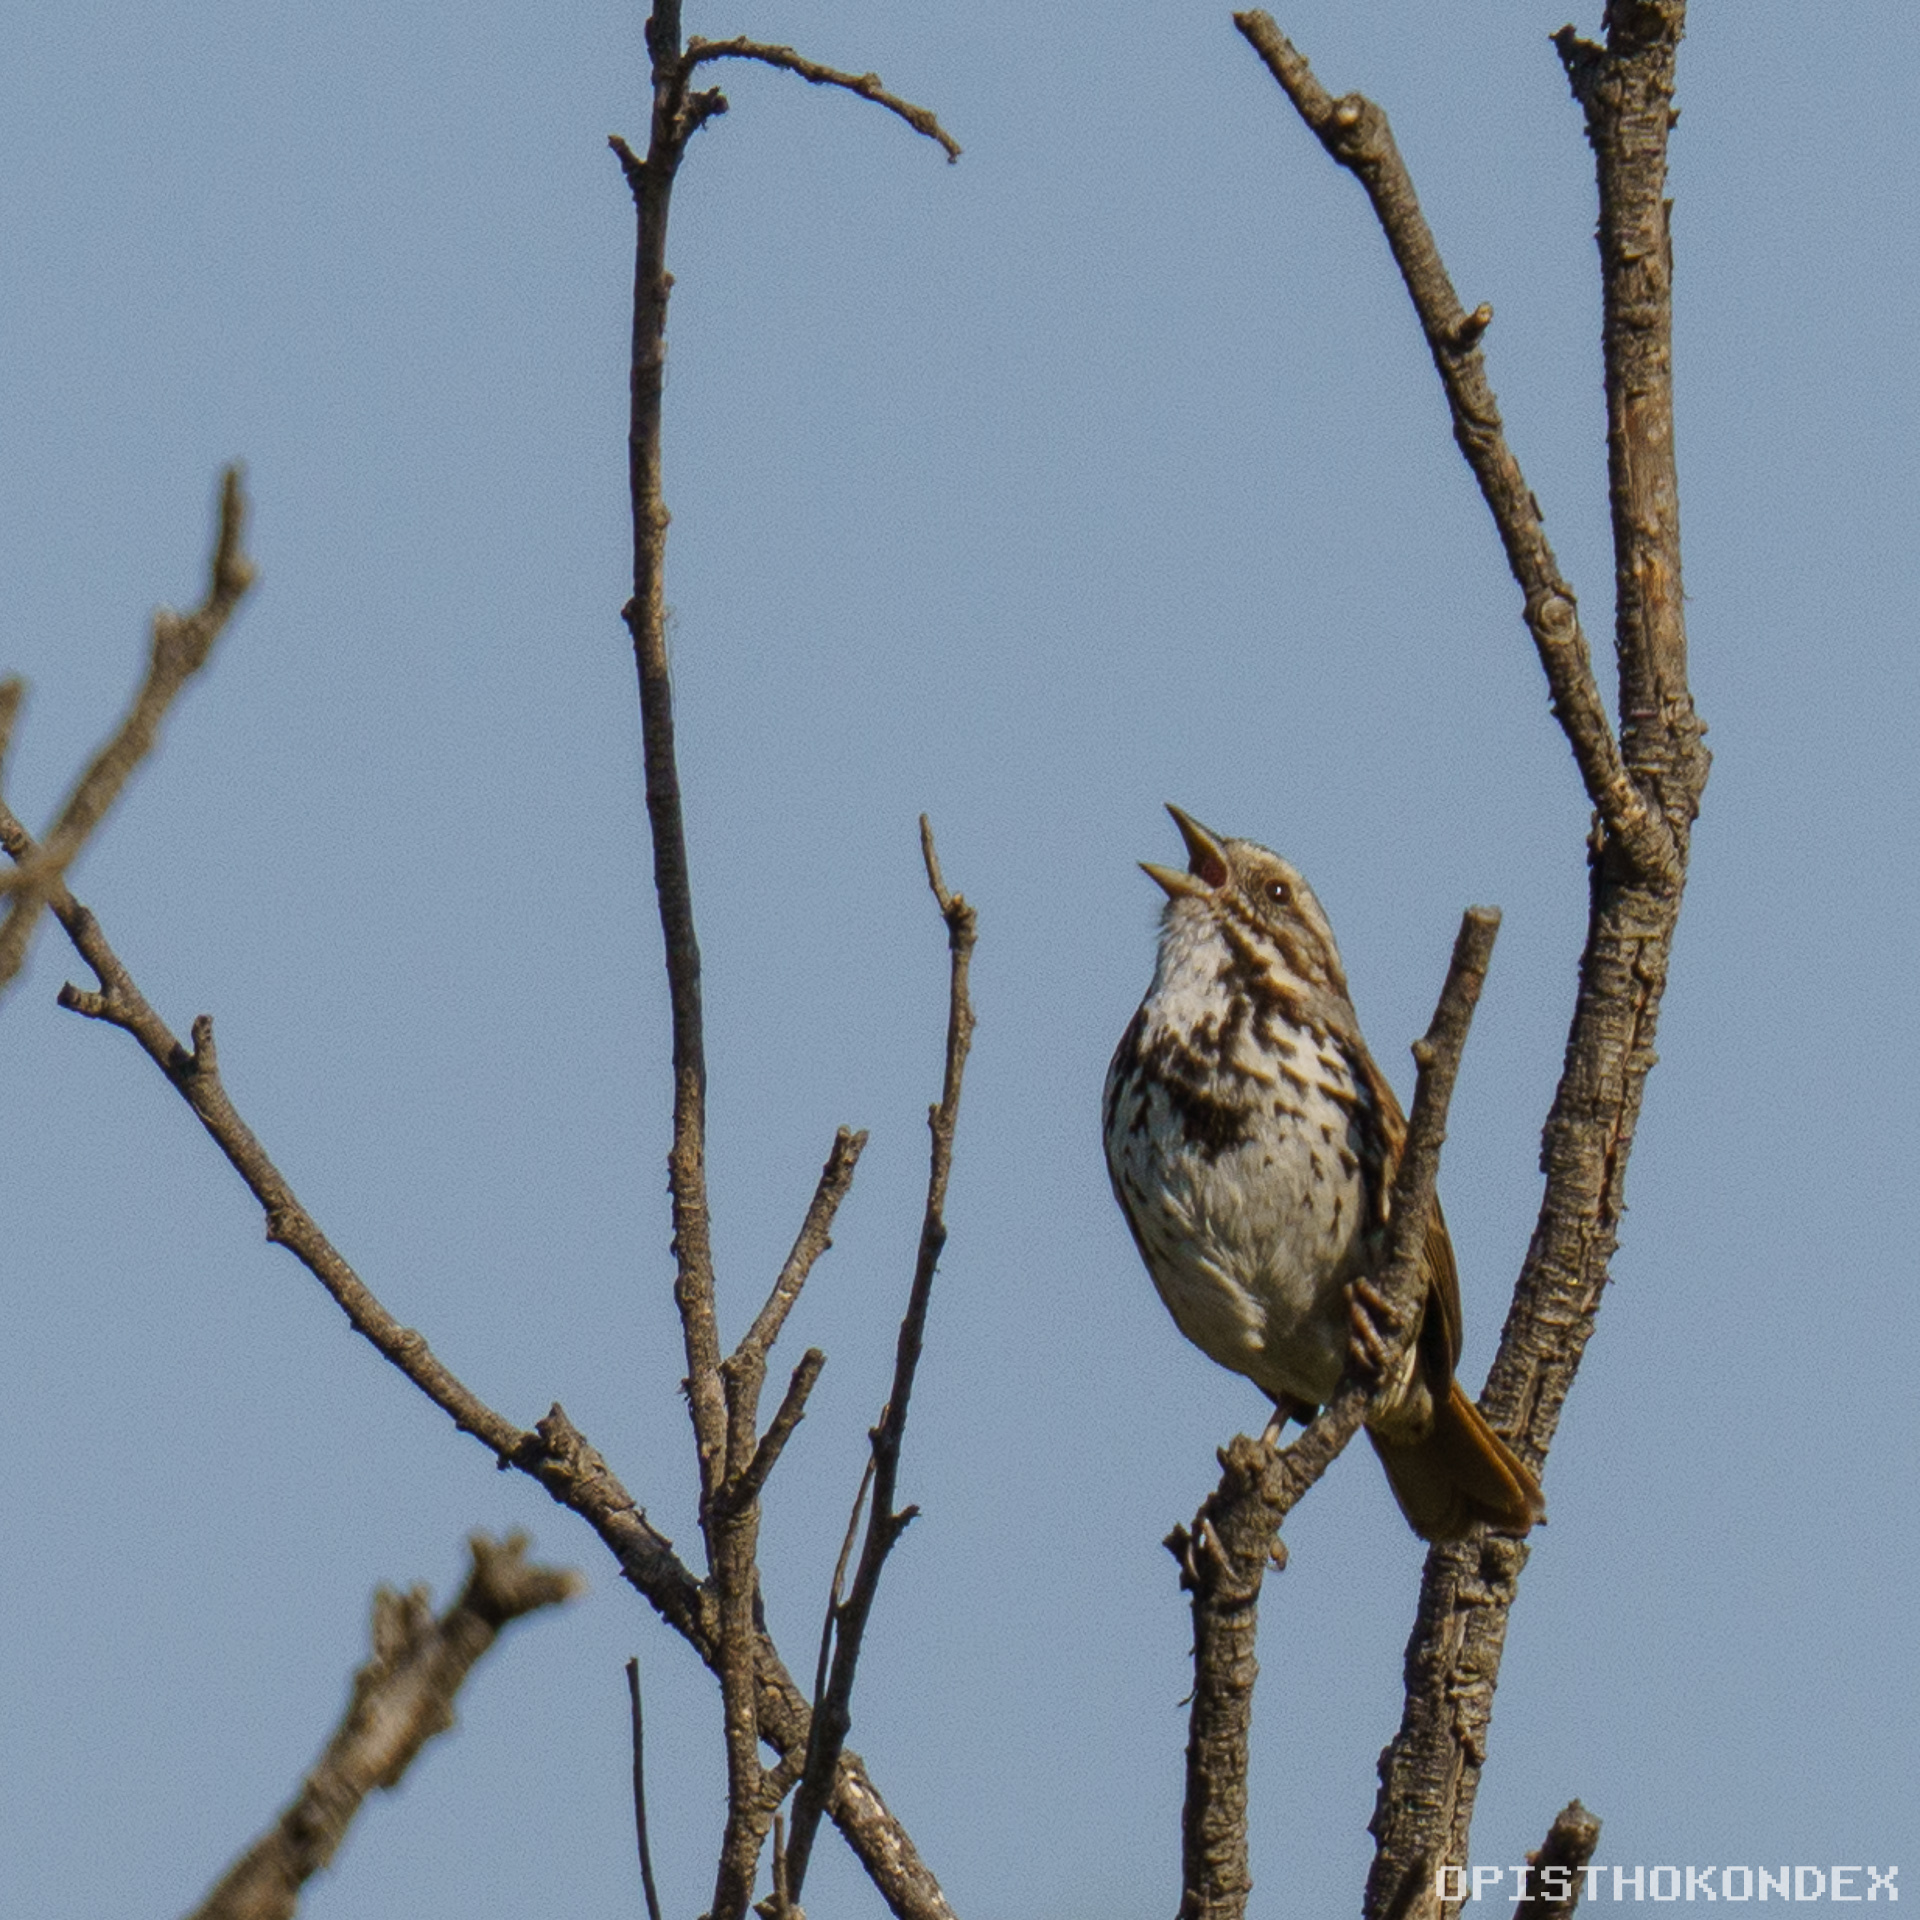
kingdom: Animalia
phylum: Chordata
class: Aves
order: Passeriformes
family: Passerellidae
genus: Melospiza
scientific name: Melospiza melodia
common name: Song sparrow
